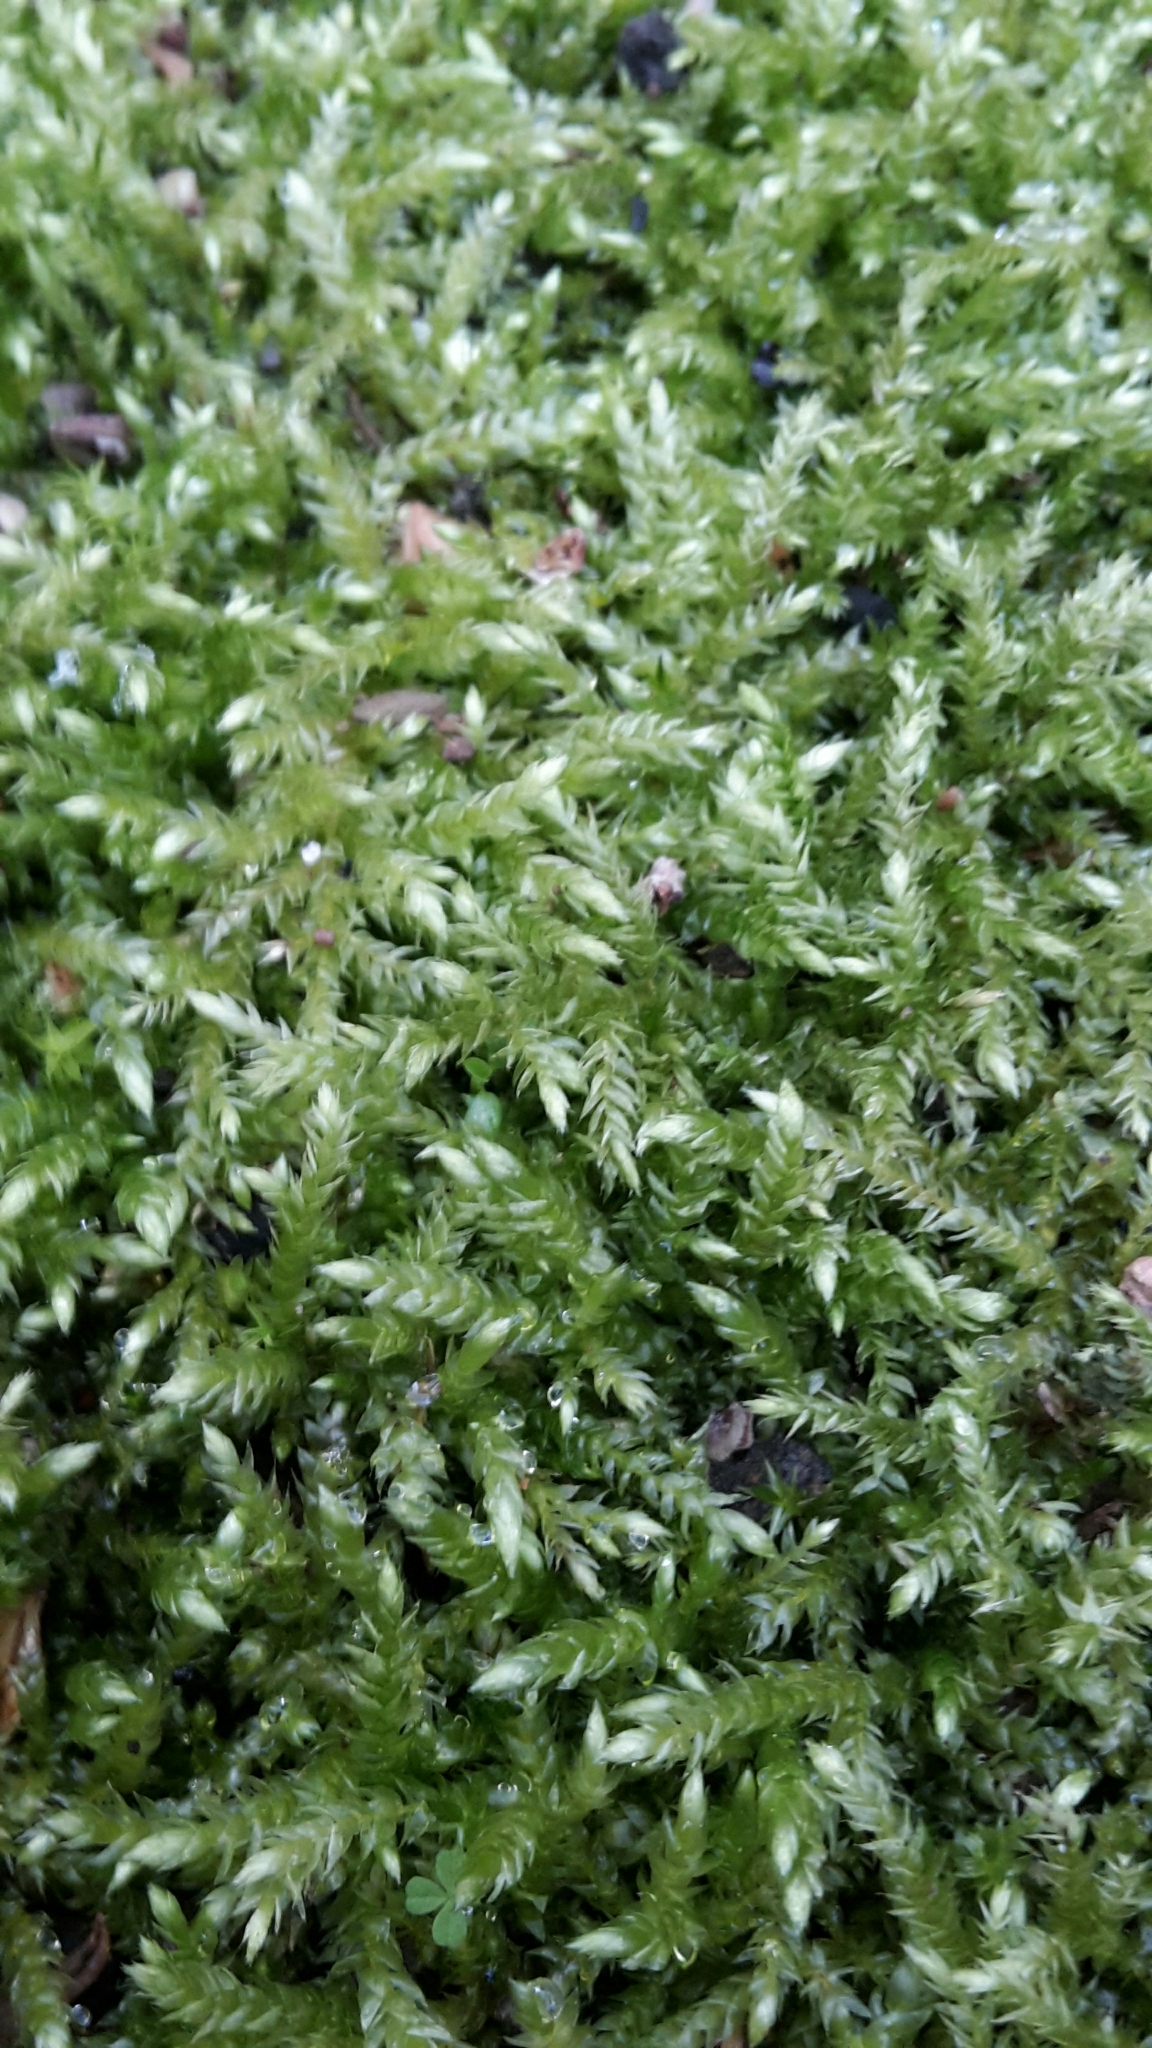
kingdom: Plantae
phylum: Bryophyta
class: Bryopsida
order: Hypnales
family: Brachytheciaceae
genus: Brachythecium
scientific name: Brachythecium rutabulum
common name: Rough-stalked feather-moss
